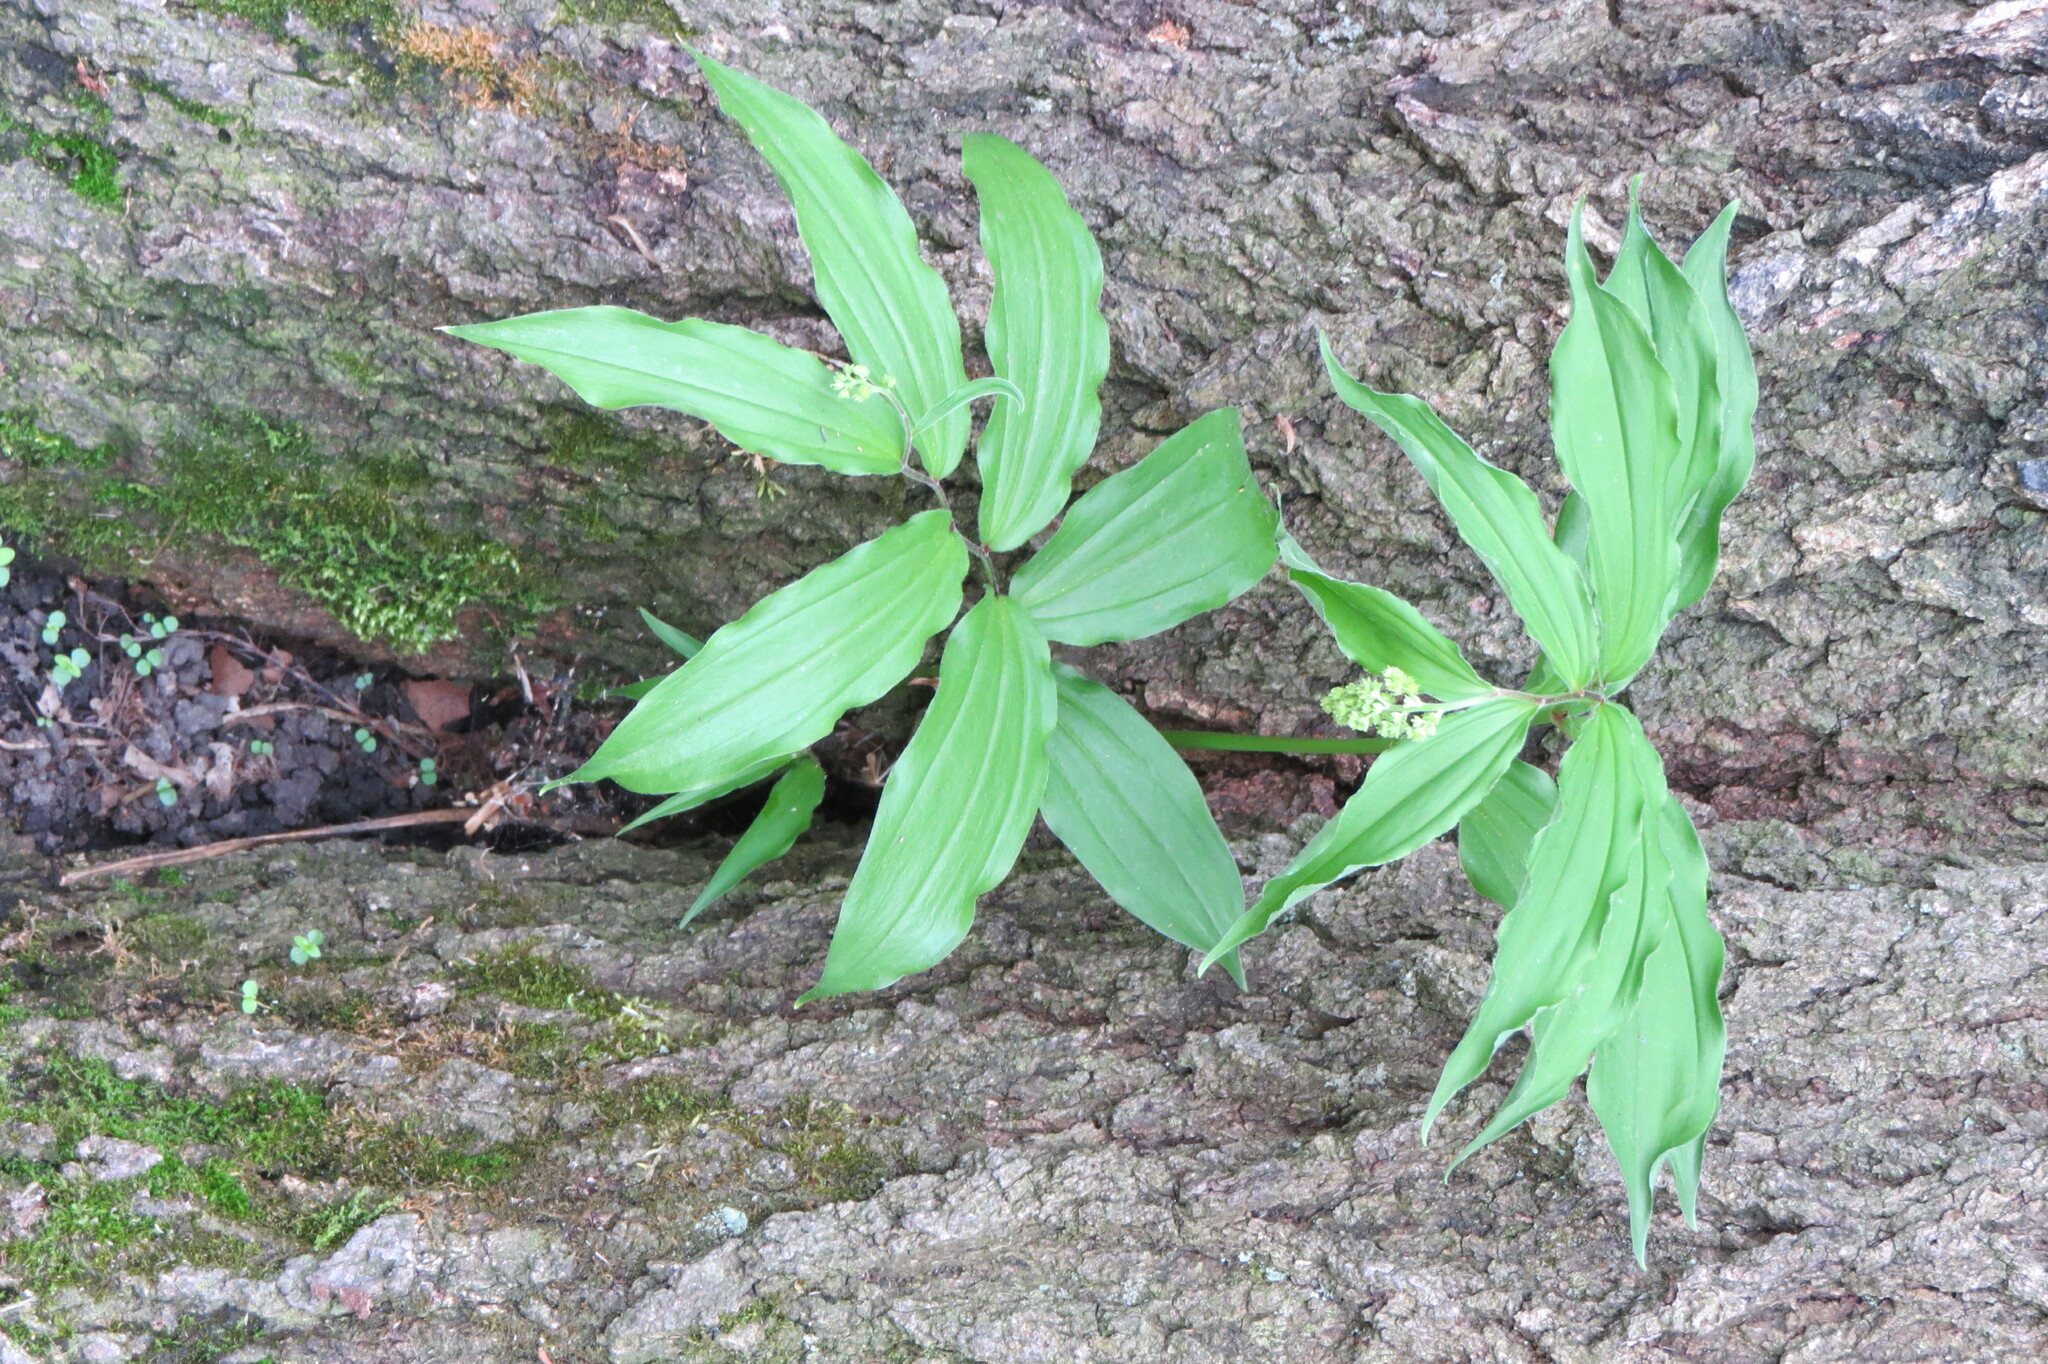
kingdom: Plantae
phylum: Tracheophyta
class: Liliopsida
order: Asparagales
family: Asparagaceae
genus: Maianthemum
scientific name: Maianthemum racemosum
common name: False spikenard
